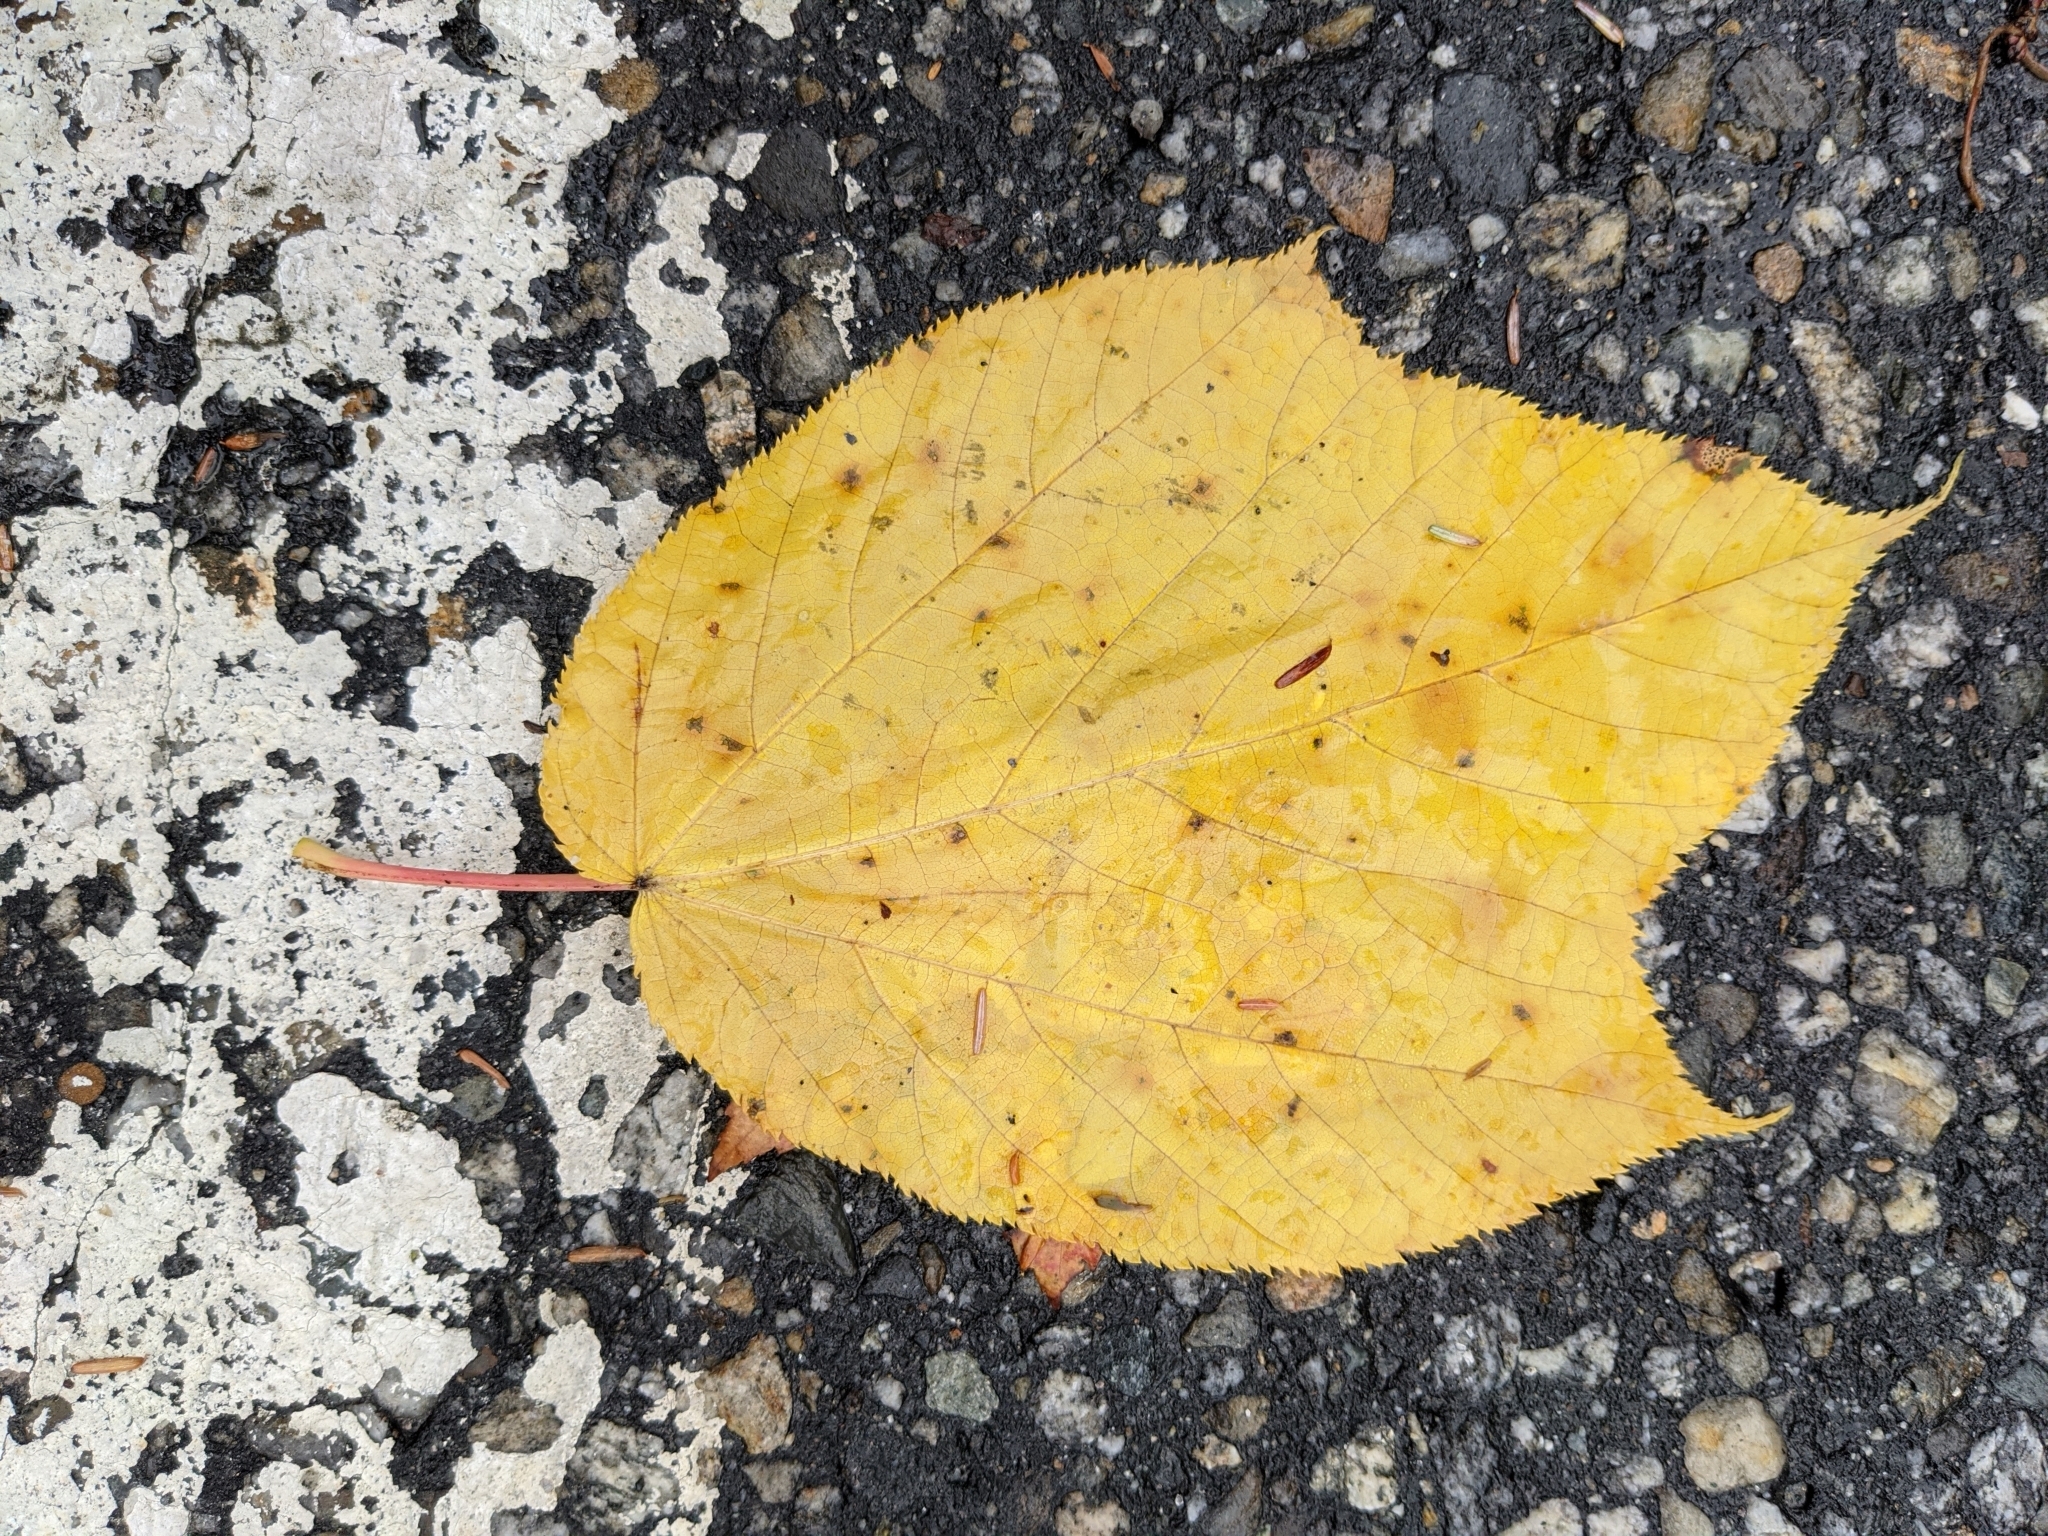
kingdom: Plantae
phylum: Tracheophyta
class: Magnoliopsida
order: Sapindales
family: Sapindaceae
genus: Acer
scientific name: Acer pensylvanicum
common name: Moosewood
